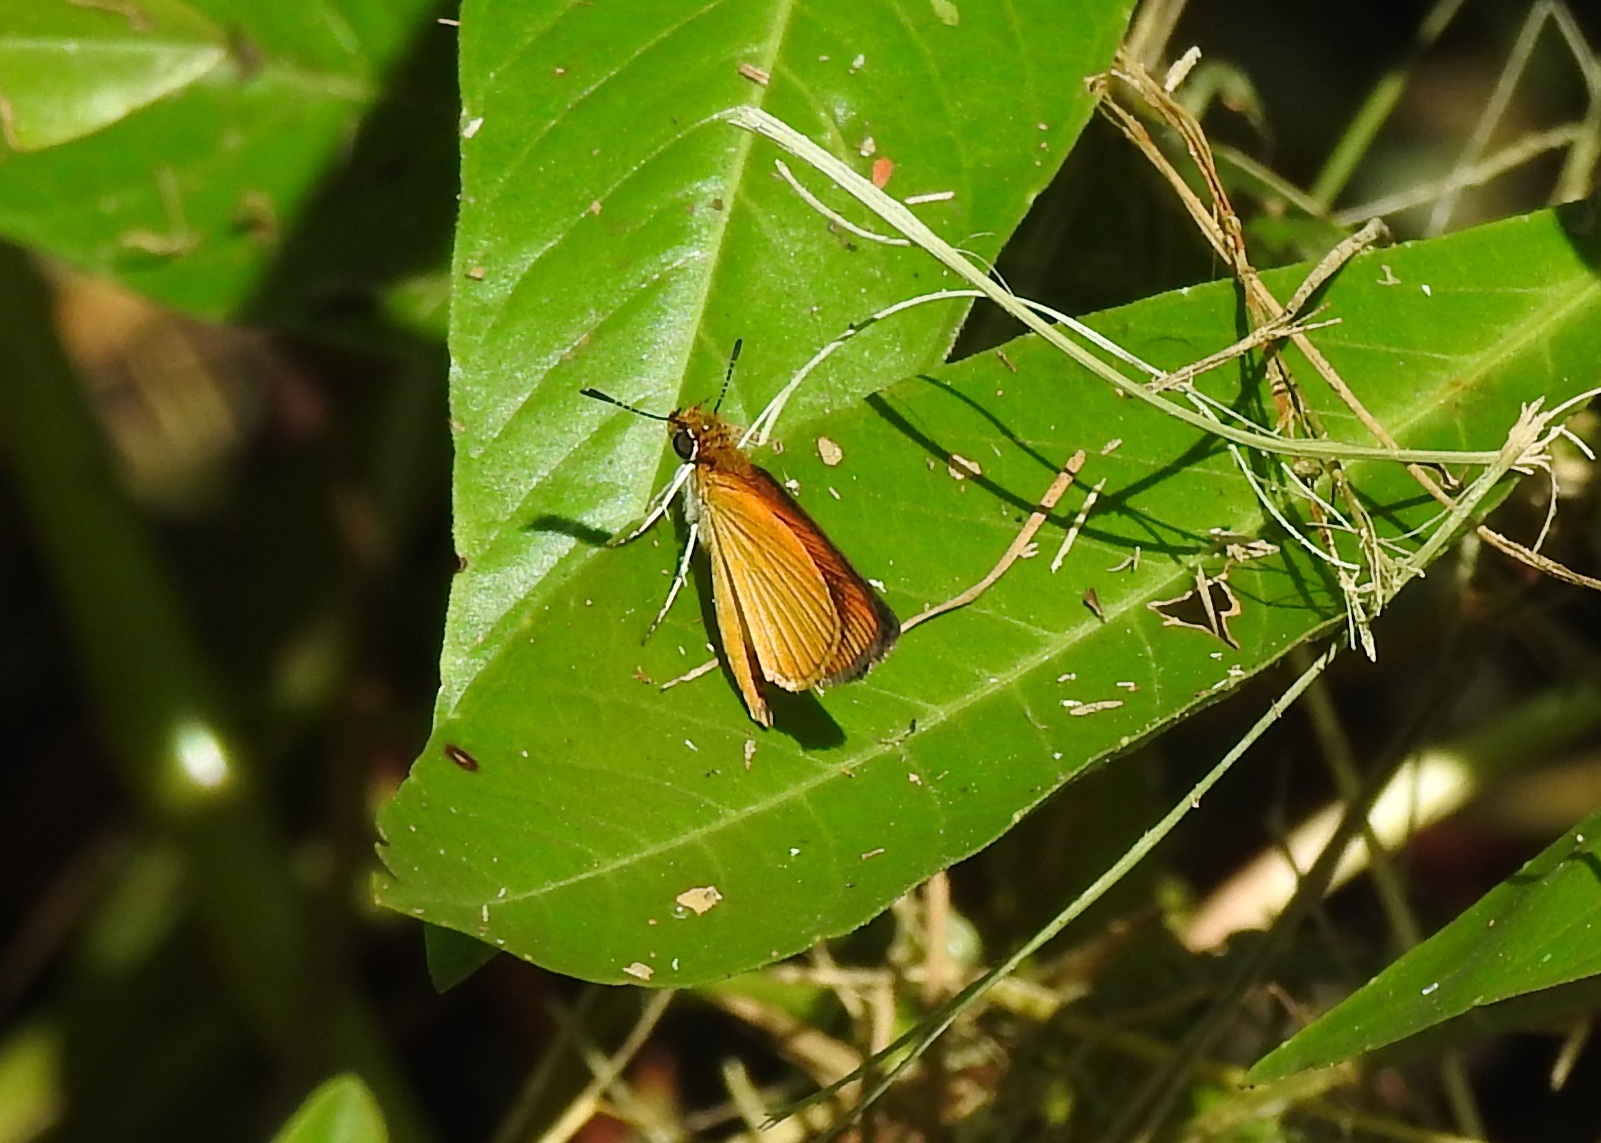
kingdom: Animalia
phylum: Arthropoda
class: Insecta
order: Lepidoptera
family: Hesperiidae
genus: Ancyloxypha
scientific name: Ancyloxypha numitor
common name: Least skipper
